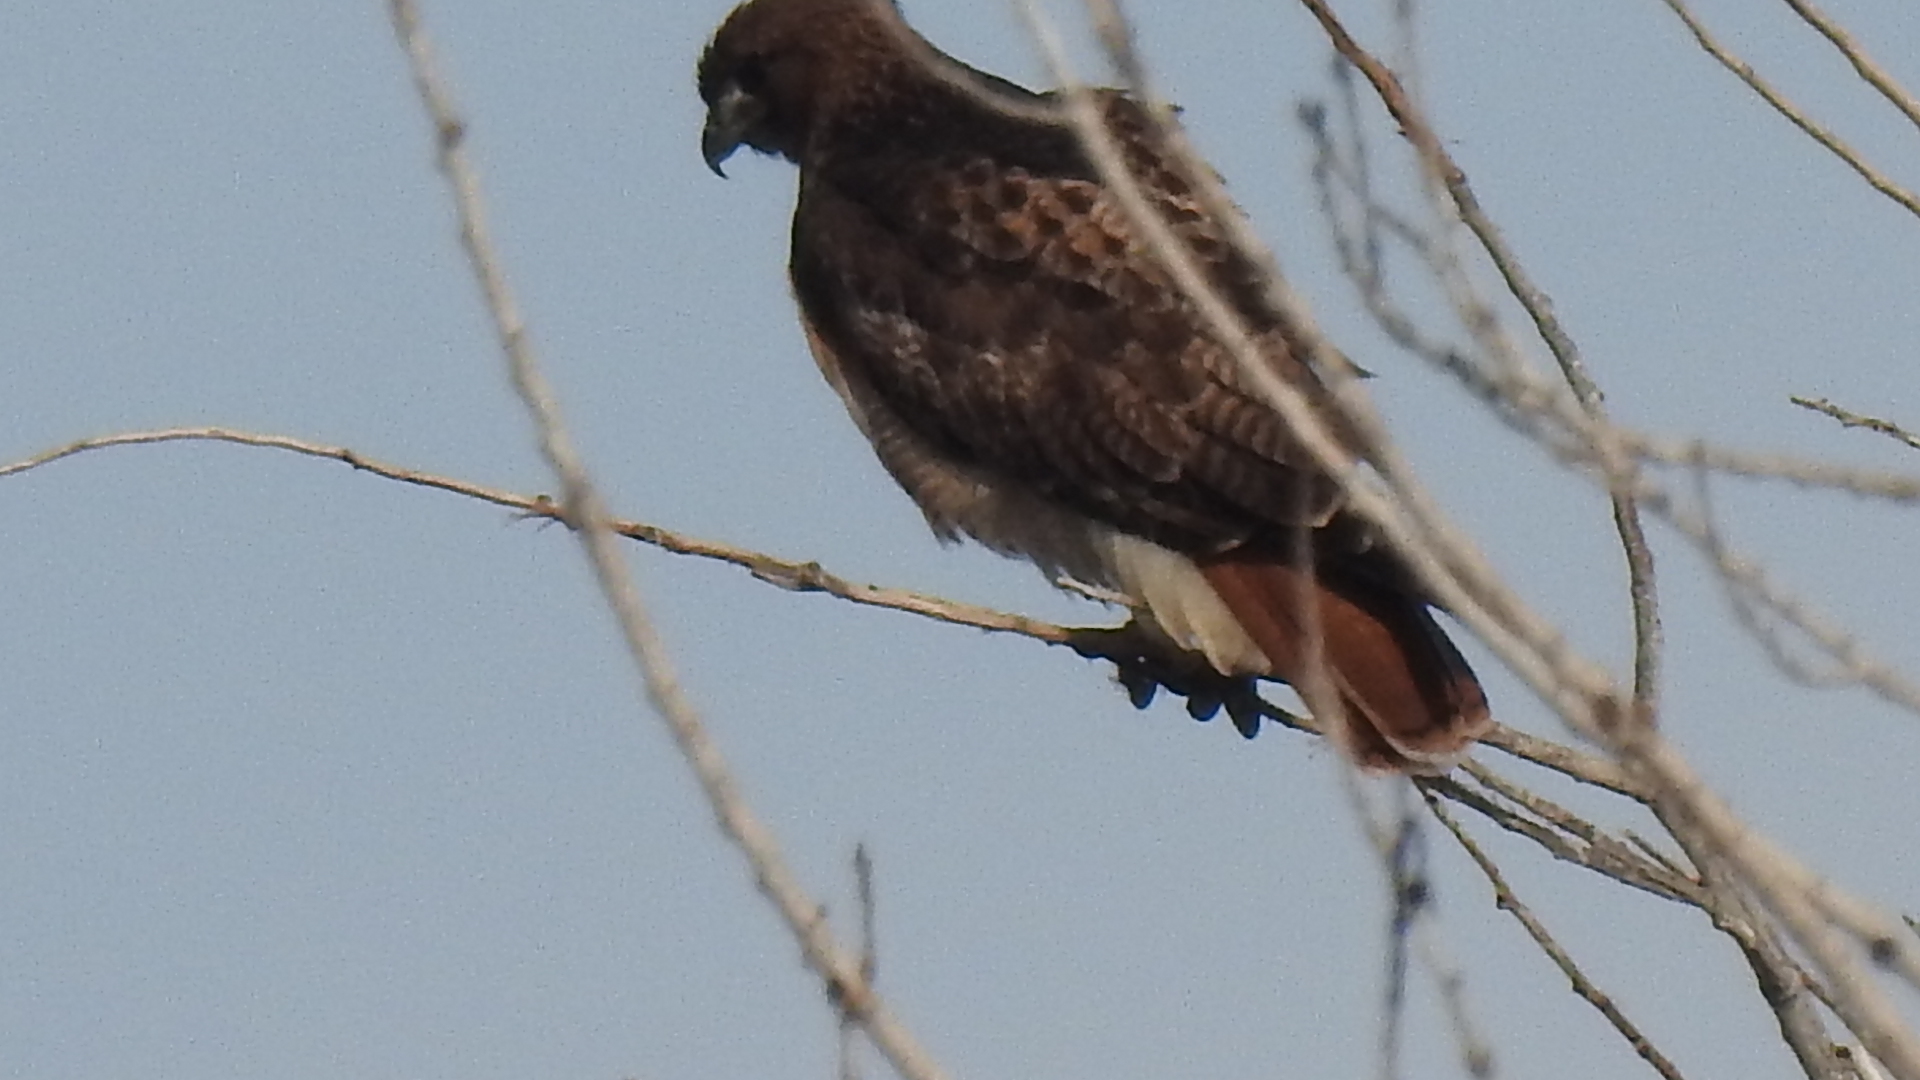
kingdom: Animalia
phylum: Chordata
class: Aves
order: Accipitriformes
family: Accipitridae
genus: Buteo
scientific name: Buteo jamaicensis
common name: Red-tailed hawk
